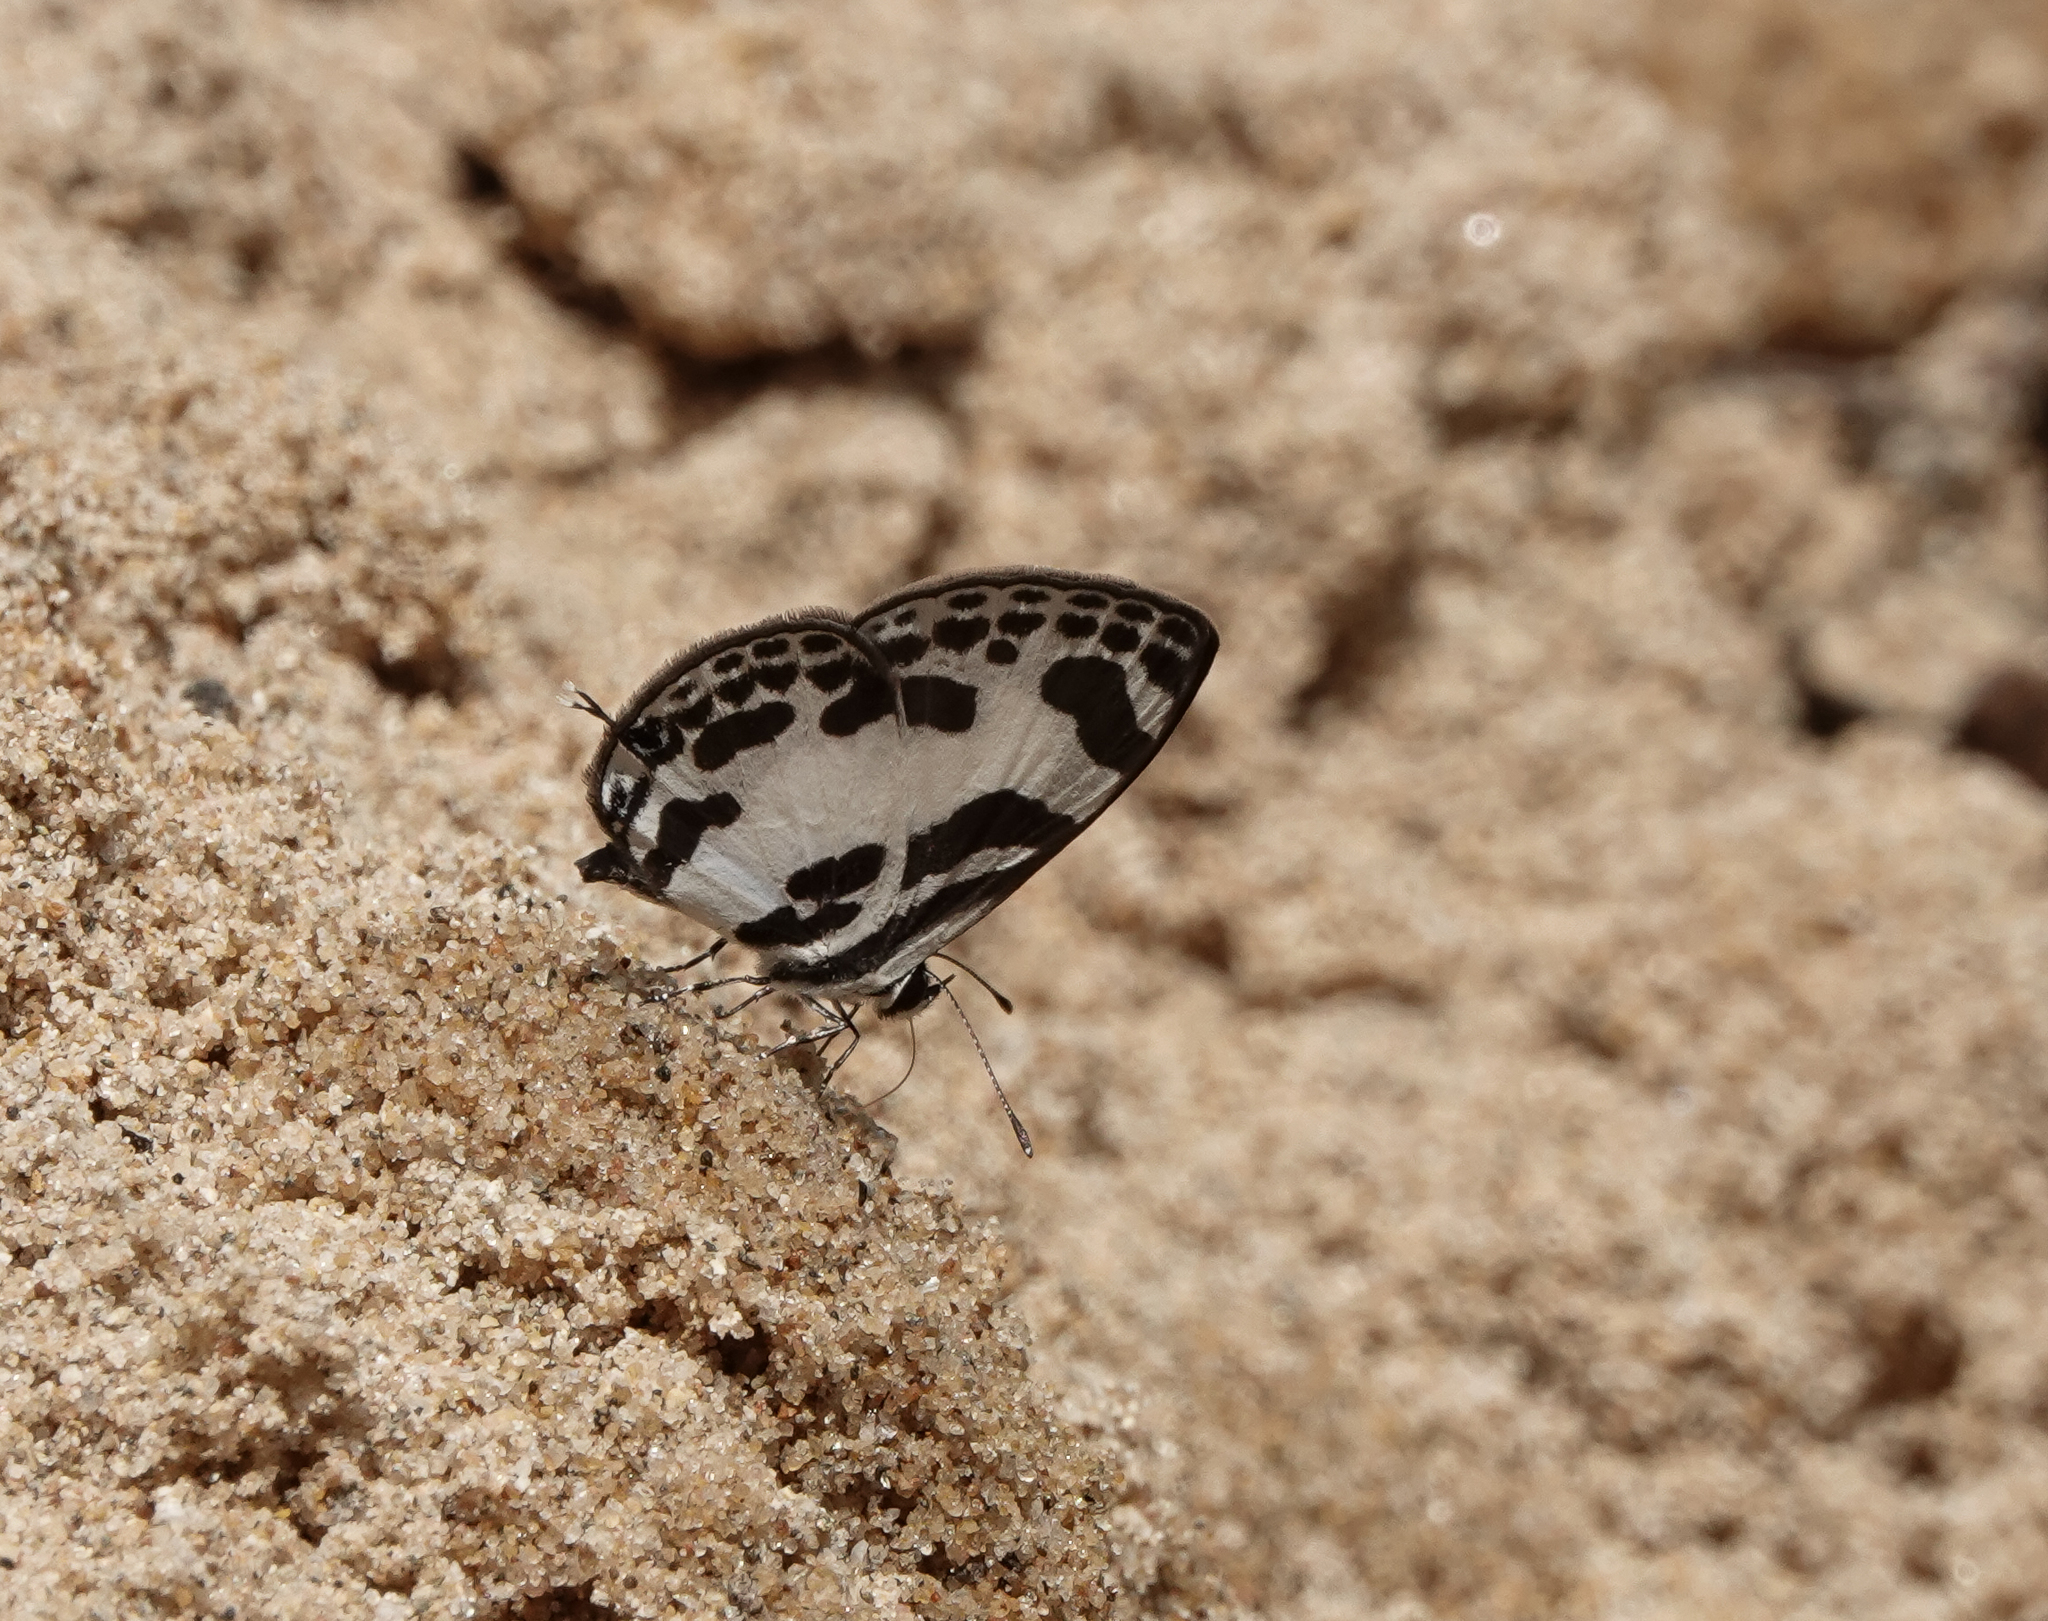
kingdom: Animalia
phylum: Arthropoda
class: Insecta
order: Lepidoptera
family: Lycaenidae
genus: Discolampa
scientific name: Discolampa ethion
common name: Banded blue pierrot
